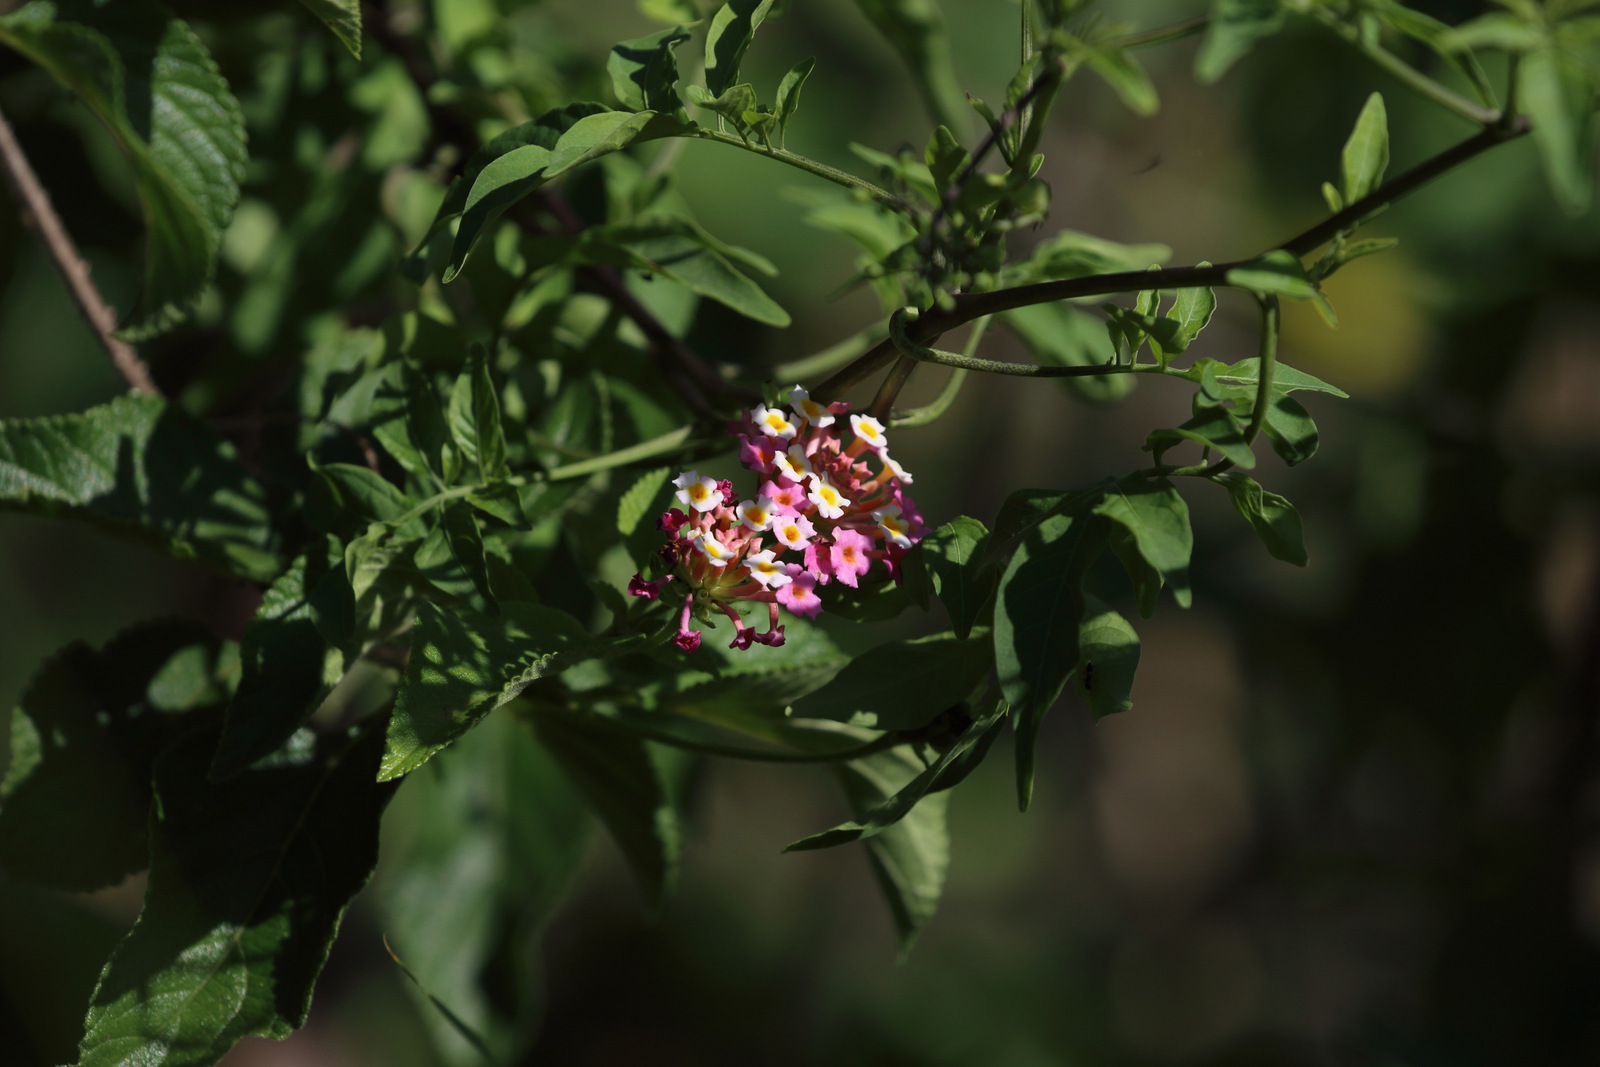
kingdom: Plantae
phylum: Tracheophyta
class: Magnoliopsida
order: Lamiales
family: Verbenaceae
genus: Lantana
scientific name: Lantana camara
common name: Lantana
